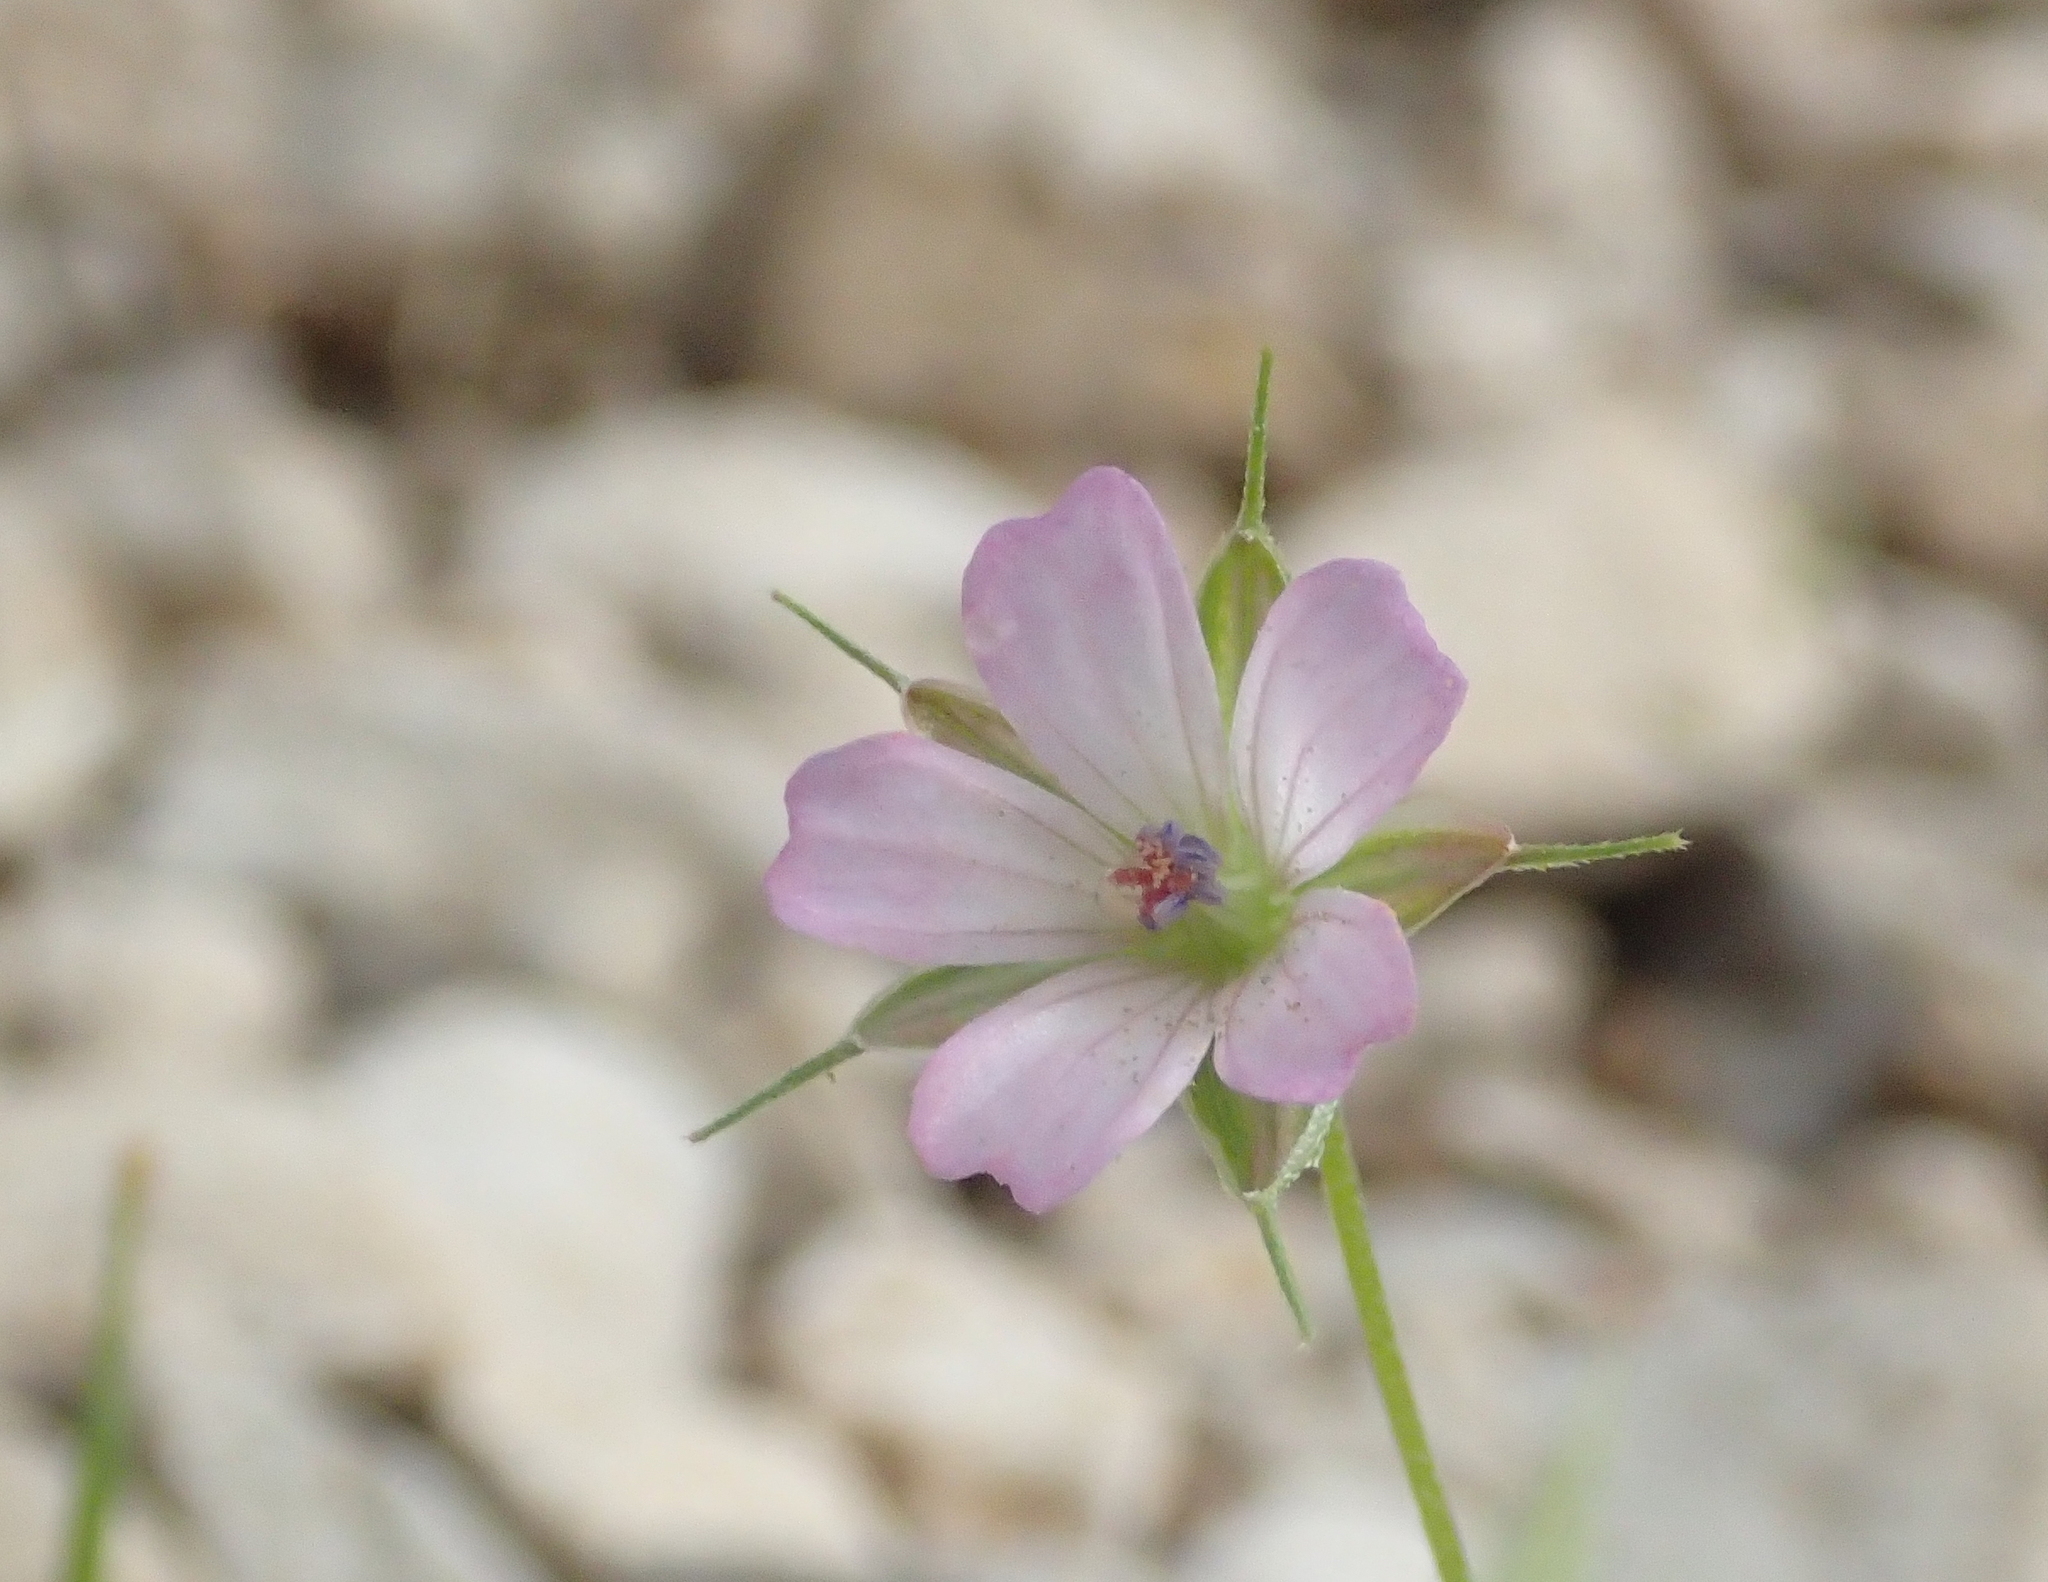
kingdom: Plantae
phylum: Tracheophyta
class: Magnoliopsida
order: Geraniales
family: Geraniaceae
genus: Geranium
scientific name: Geranium columbinum
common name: Long-stalked crane's-bill
